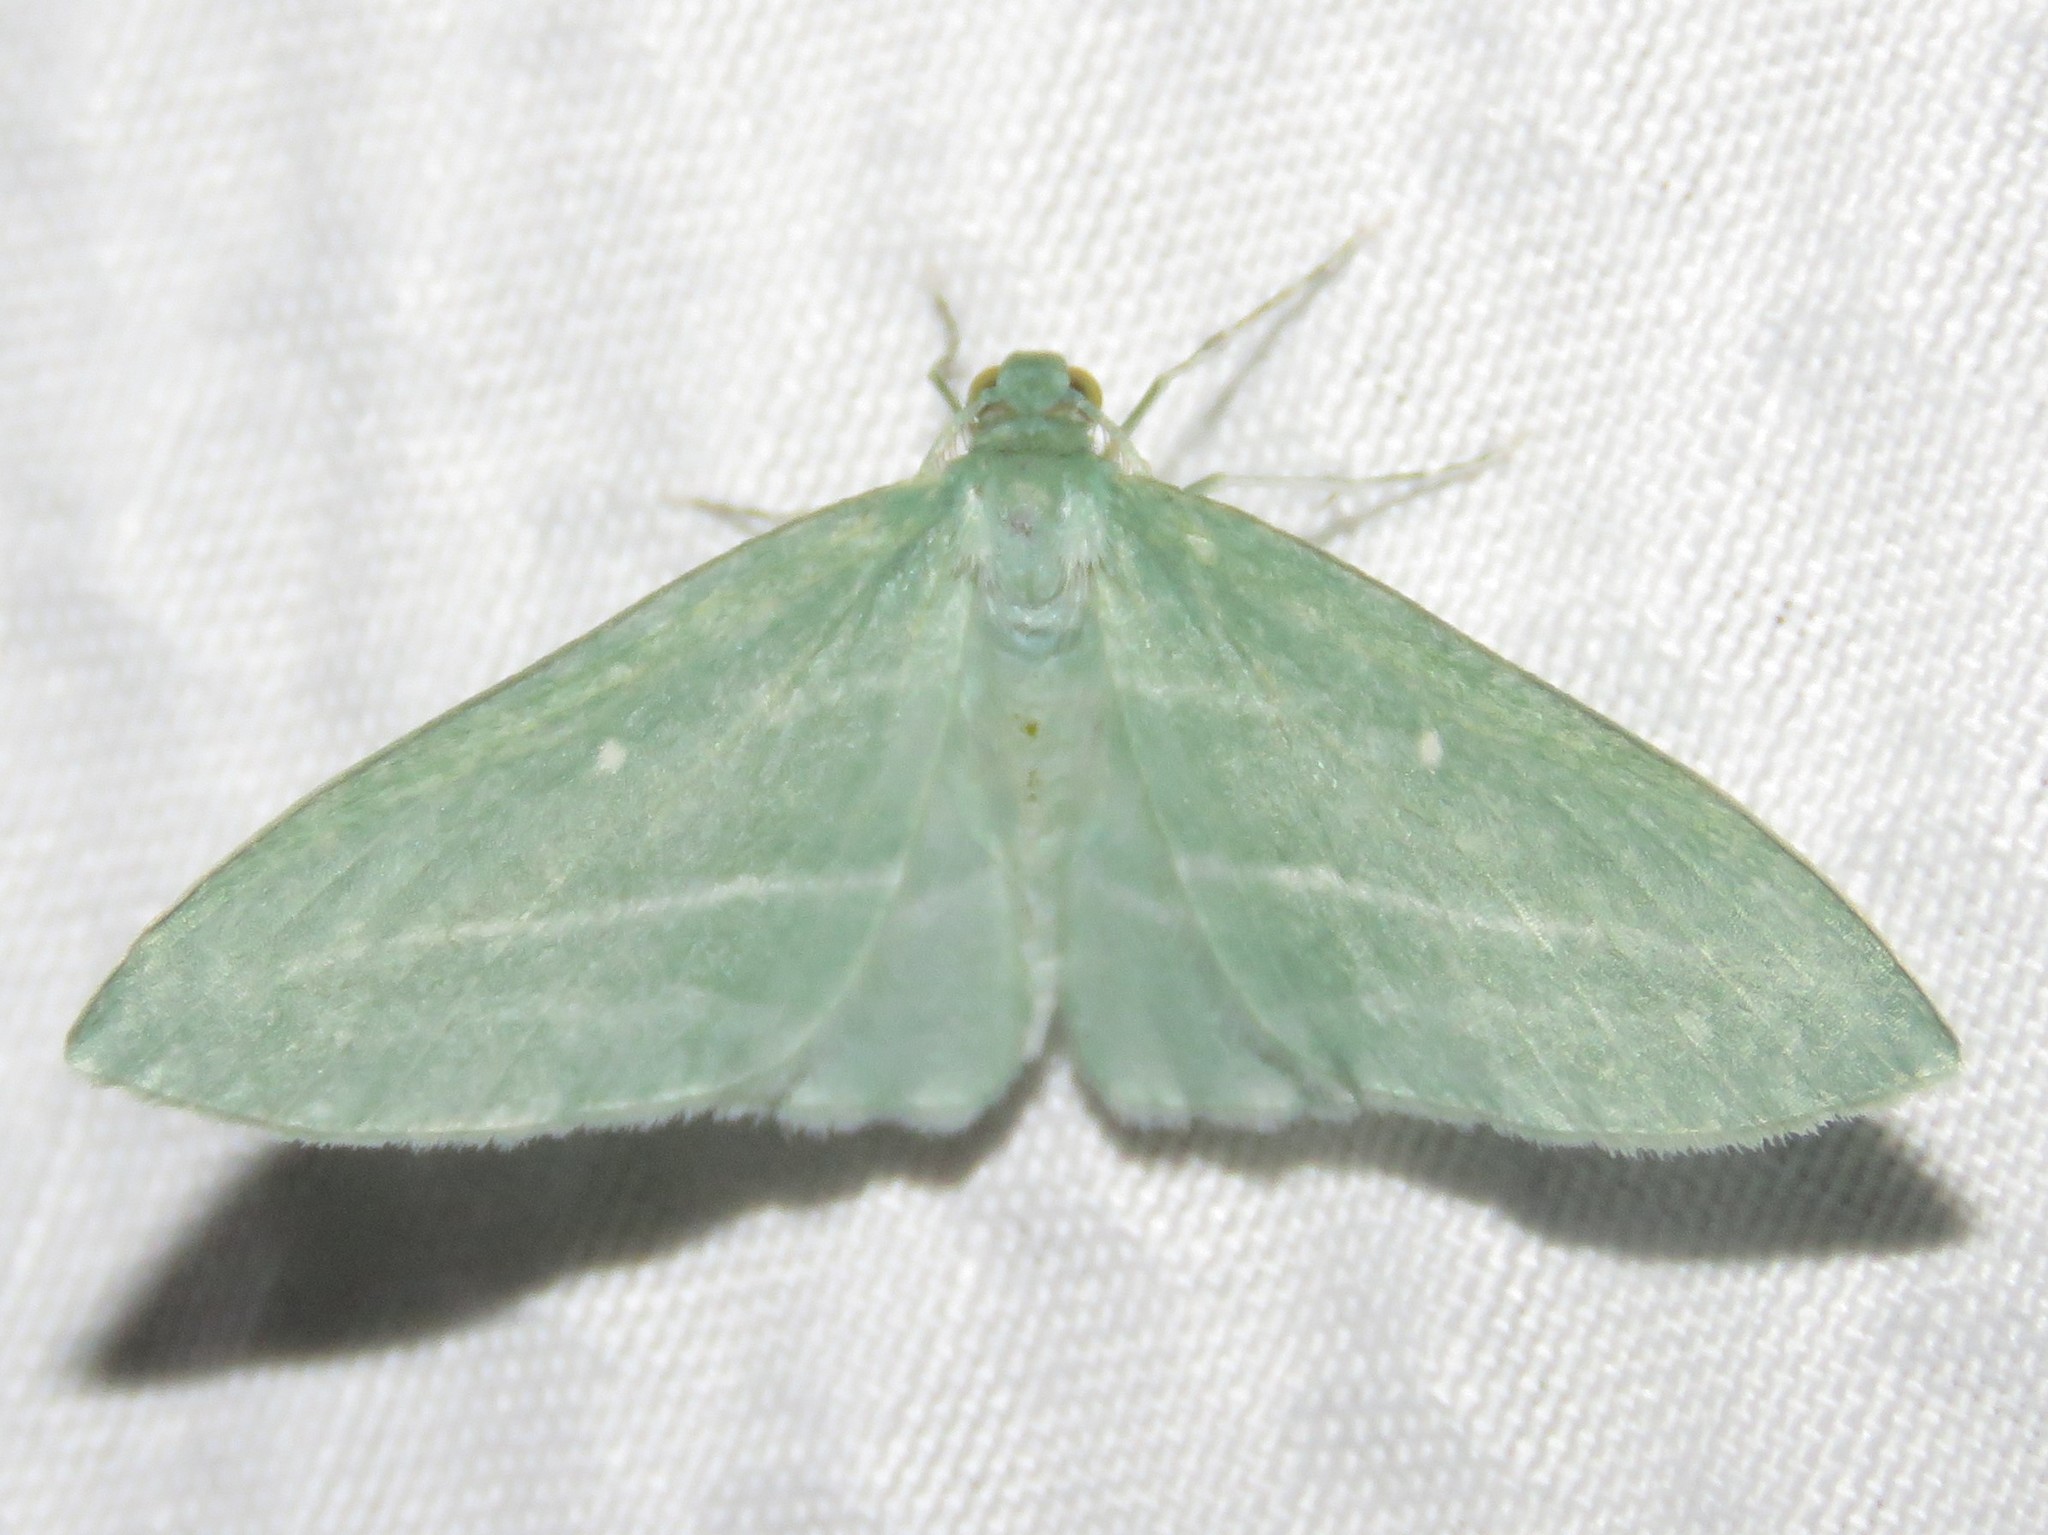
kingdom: Animalia
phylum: Arthropoda
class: Insecta
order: Lepidoptera
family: Geometridae
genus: Dyspteris
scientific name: Dyspteris abortivaria
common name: Bad-wing
